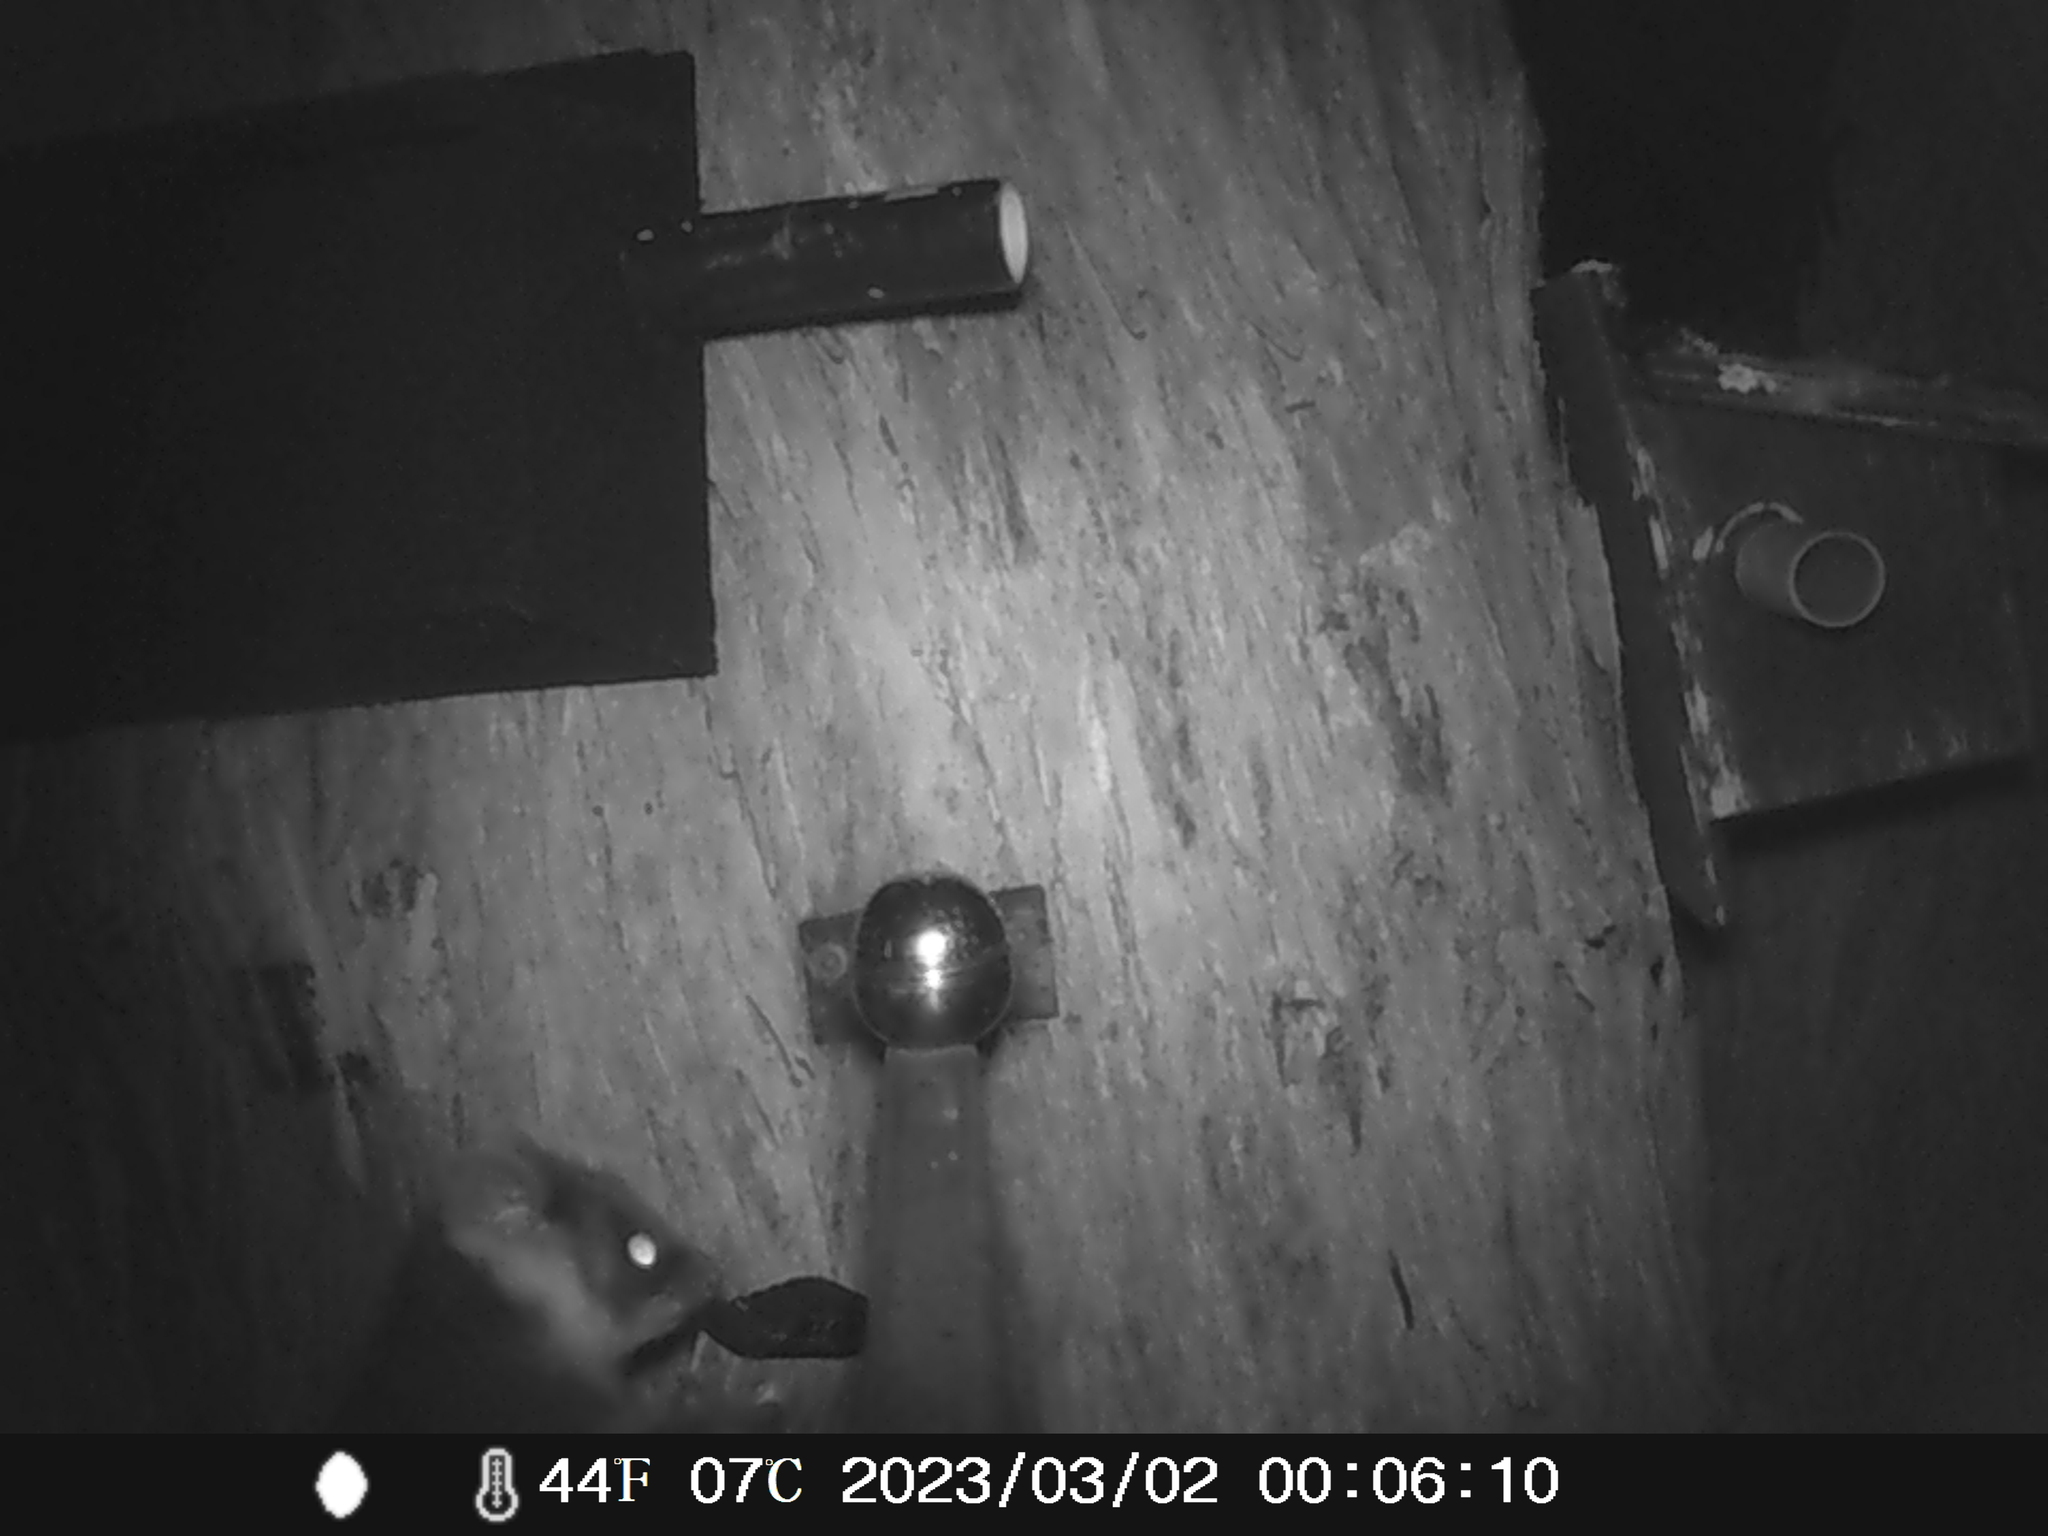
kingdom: Animalia
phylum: Chordata
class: Mammalia
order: Diprotodontia
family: Pseudocheiridae
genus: Pseudocheirus
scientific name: Pseudocheirus peregrinus
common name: Common ringtail possum
